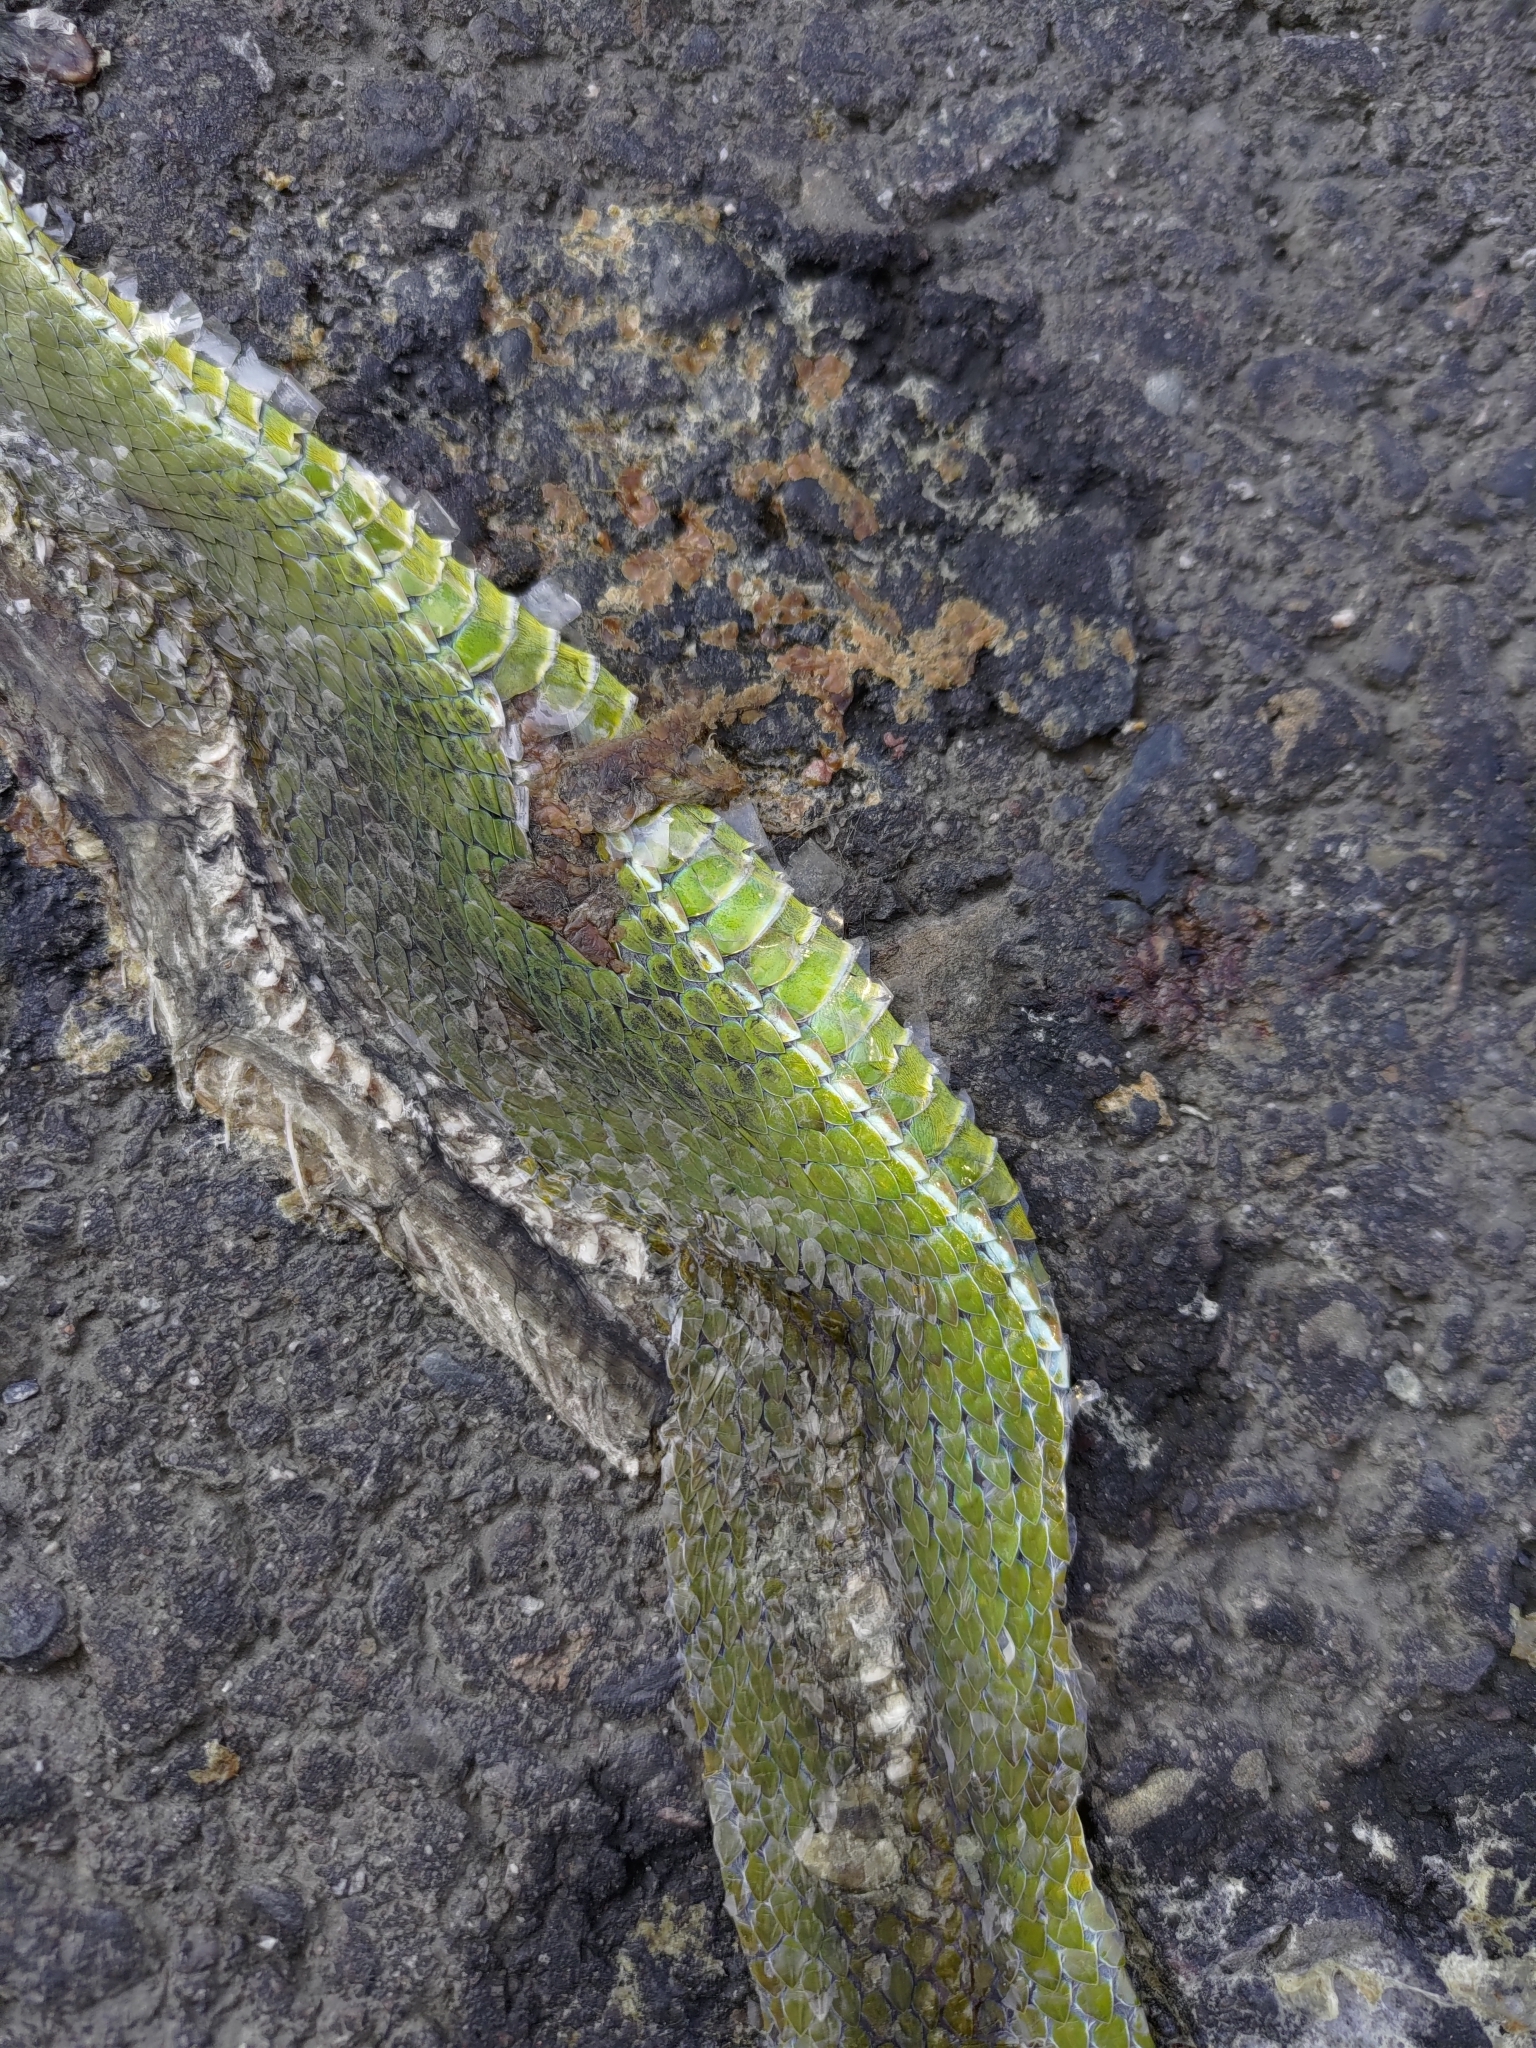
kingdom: Animalia
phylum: Chordata
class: Squamata
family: Viperidae
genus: Trimeresurus
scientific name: Trimeresurus stejnegeri
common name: Chen’s bamboo pit viper
